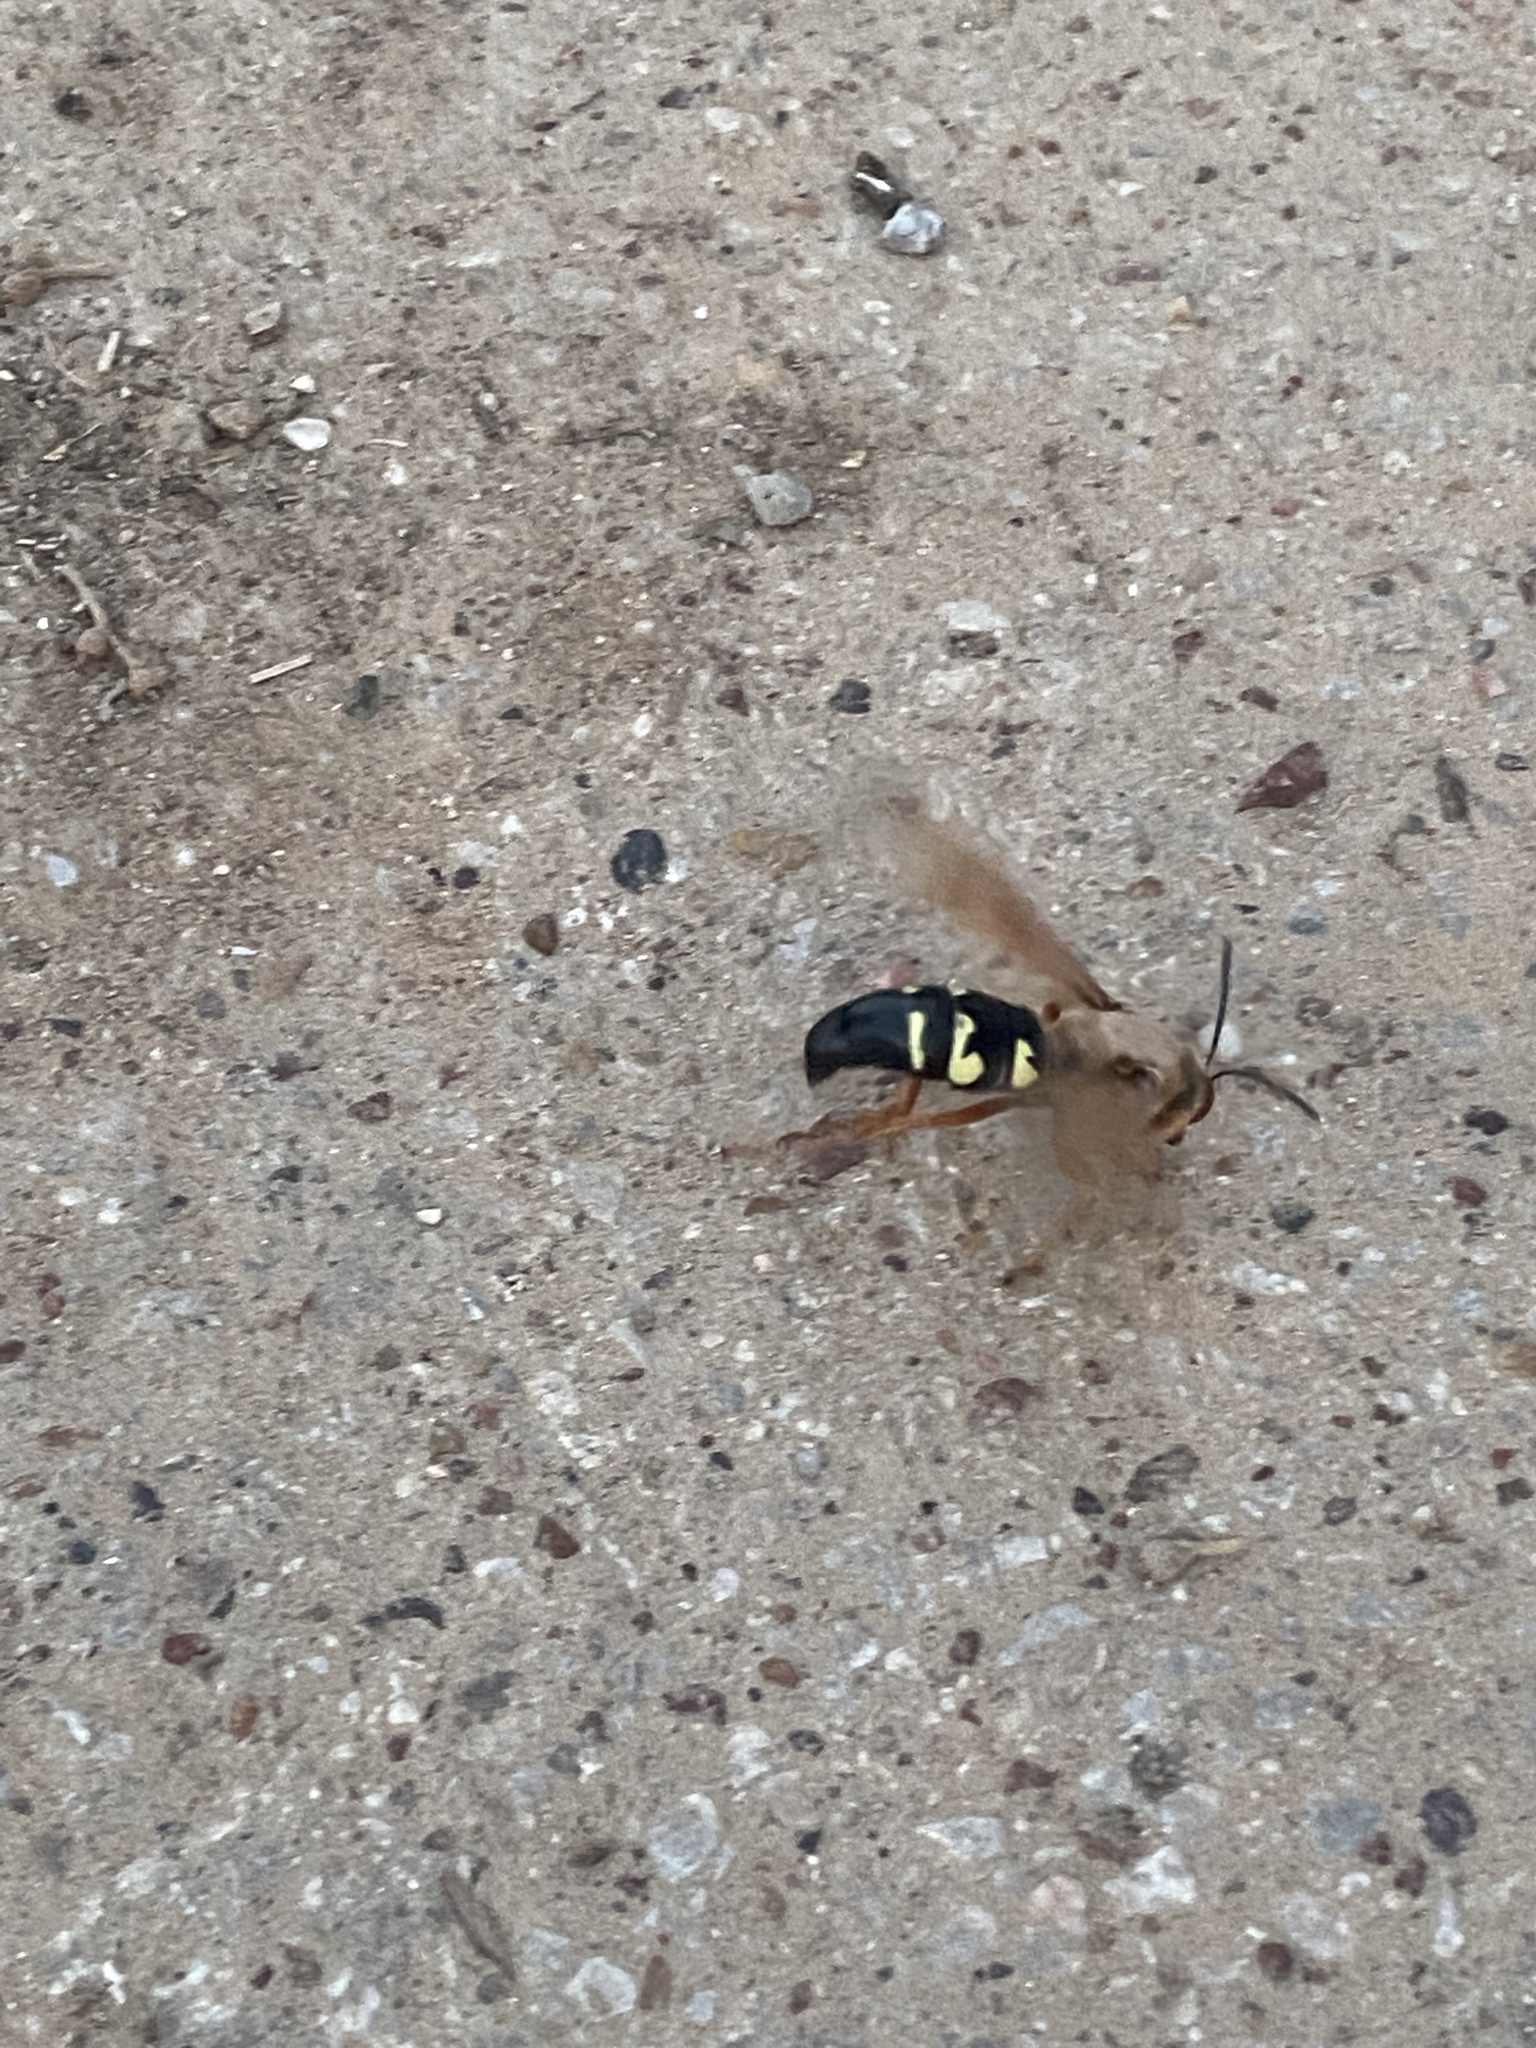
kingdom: Animalia
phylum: Arthropoda
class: Insecta
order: Hymenoptera
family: Crabronidae
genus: Sphecius
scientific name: Sphecius speciosus
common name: Cicada killer
